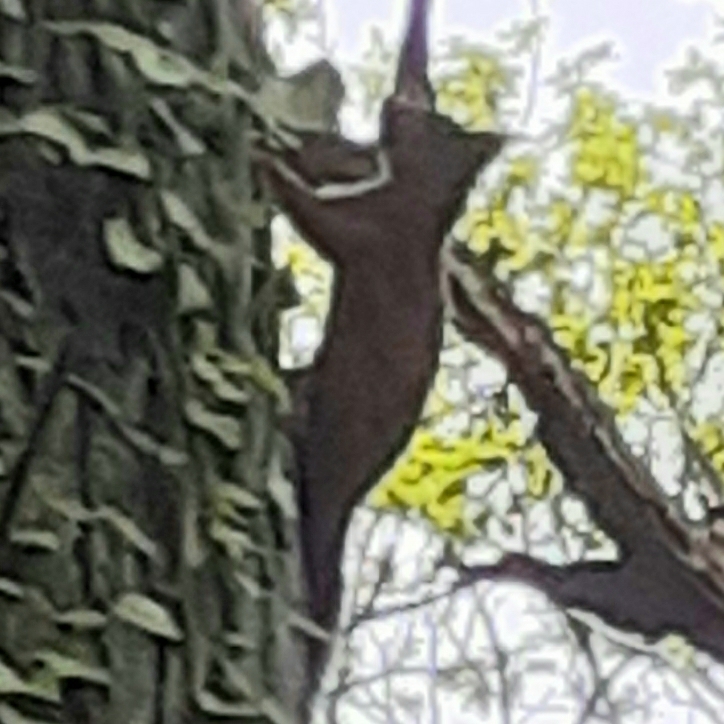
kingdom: Animalia
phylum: Chordata
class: Mammalia
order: Rodentia
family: Sciuridae
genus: Sciurus
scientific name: Sciurus vulgaris
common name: Eurasian red squirrel
